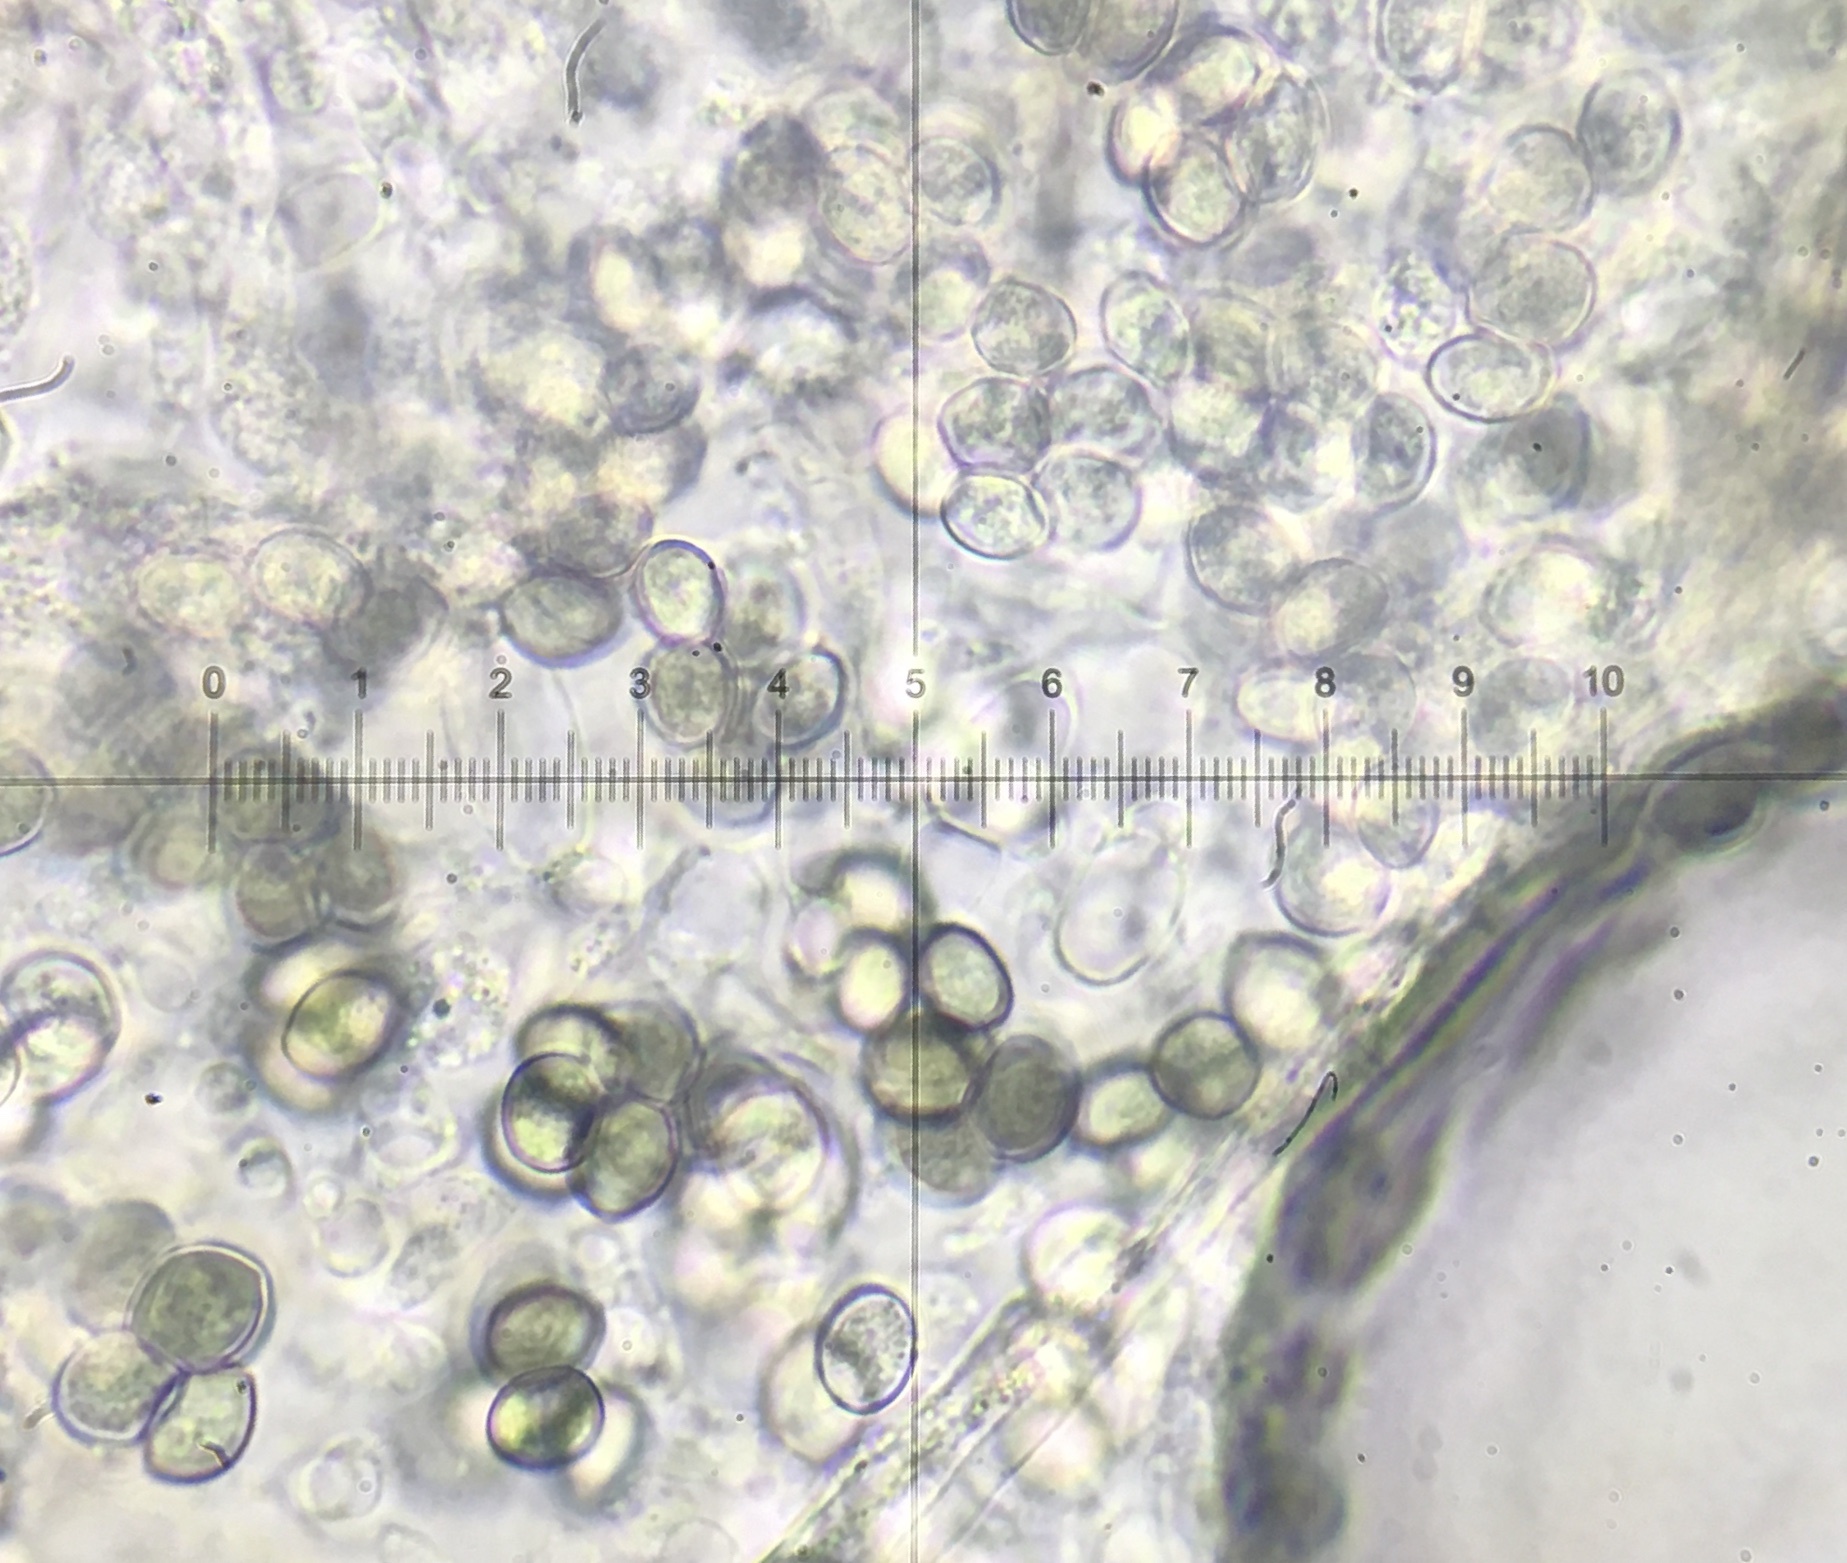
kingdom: Fungi
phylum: Ascomycota
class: Sordariomycetes
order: Sordariales
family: Chaetomiaceae
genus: Chaetomium
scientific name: Chaetomium subfimeti
